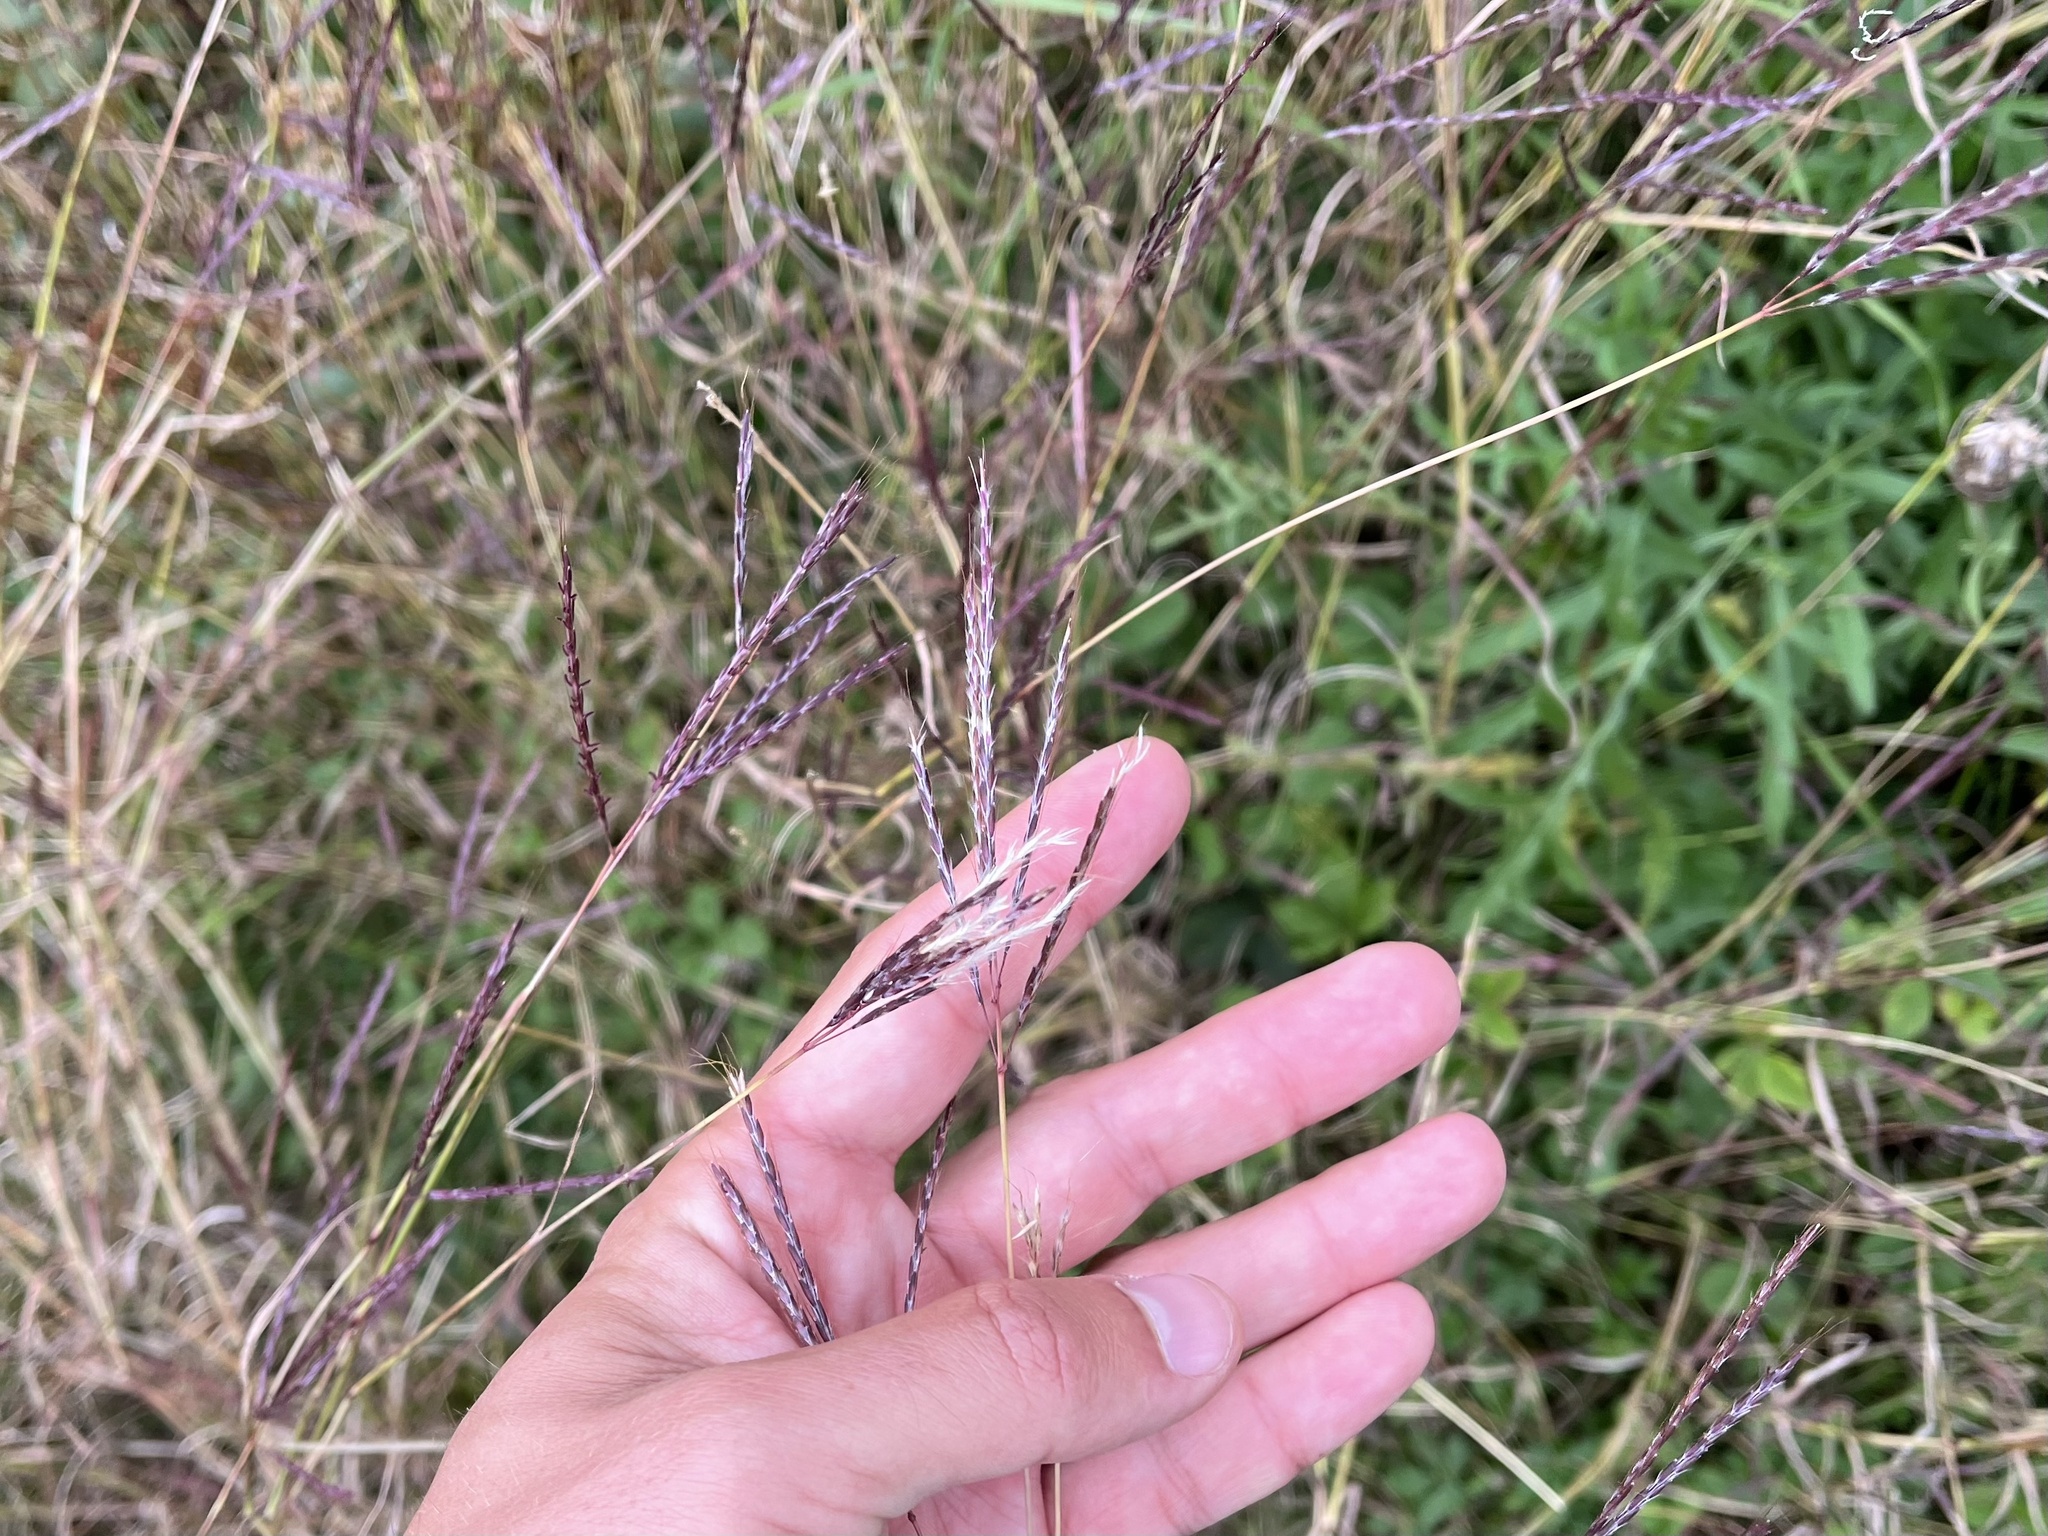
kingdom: Plantae
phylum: Tracheophyta
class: Liliopsida
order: Poales
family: Poaceae
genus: Bothriochloa
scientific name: Bothriochloa ischaemum
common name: Yellow bluestem
